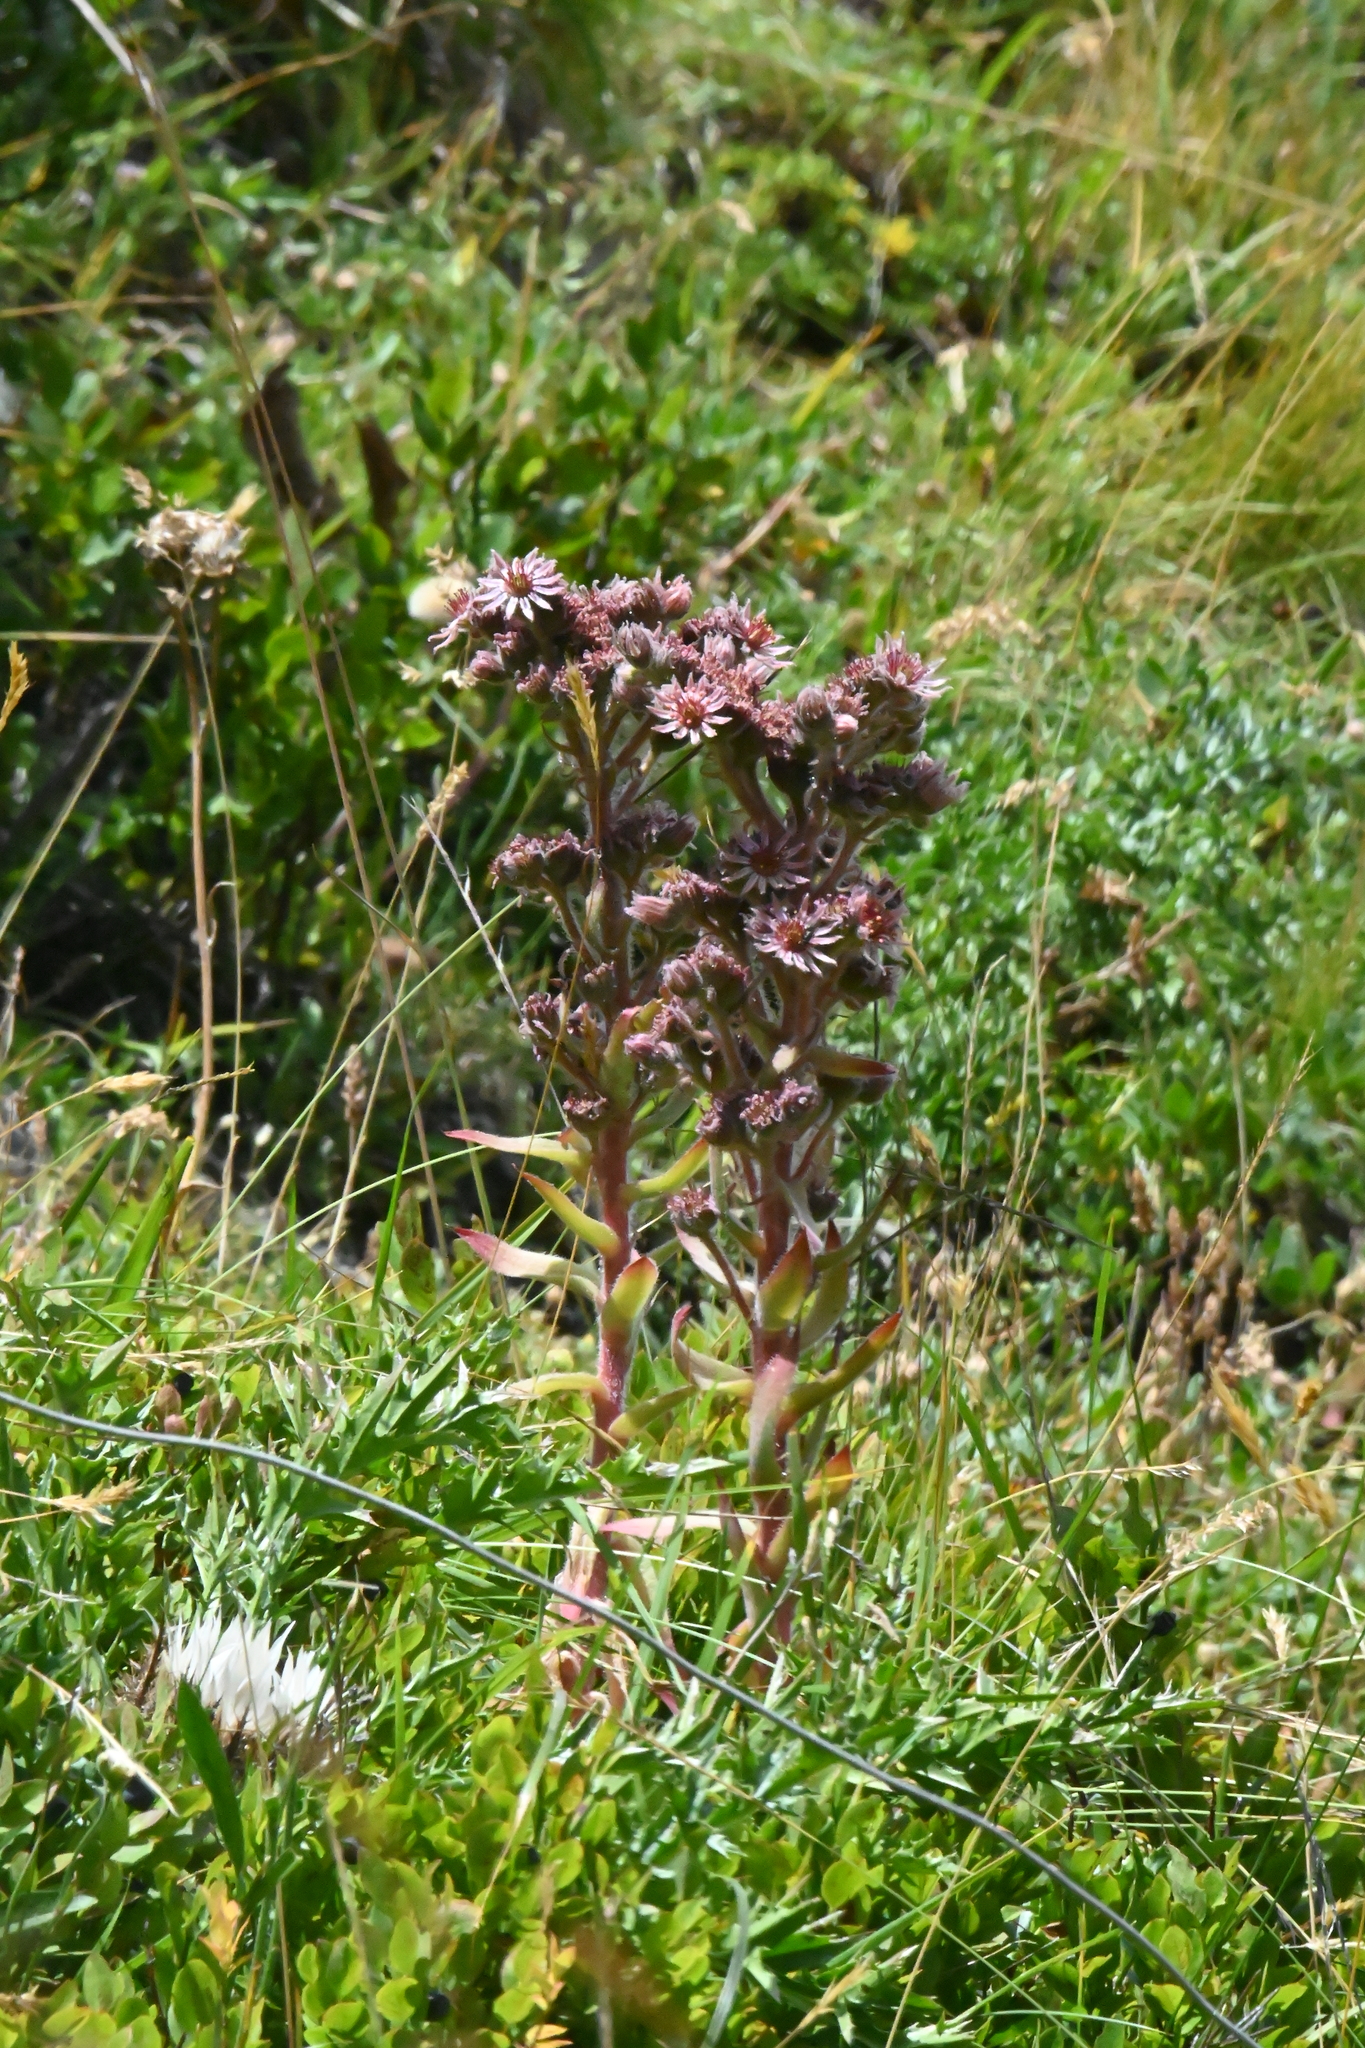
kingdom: Plantae
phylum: Tracheophyta
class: Magnoliopsida
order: Saxifragales
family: Crassulaceae
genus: Sempervivum
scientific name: Sempervivum tectorum
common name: House-leek
